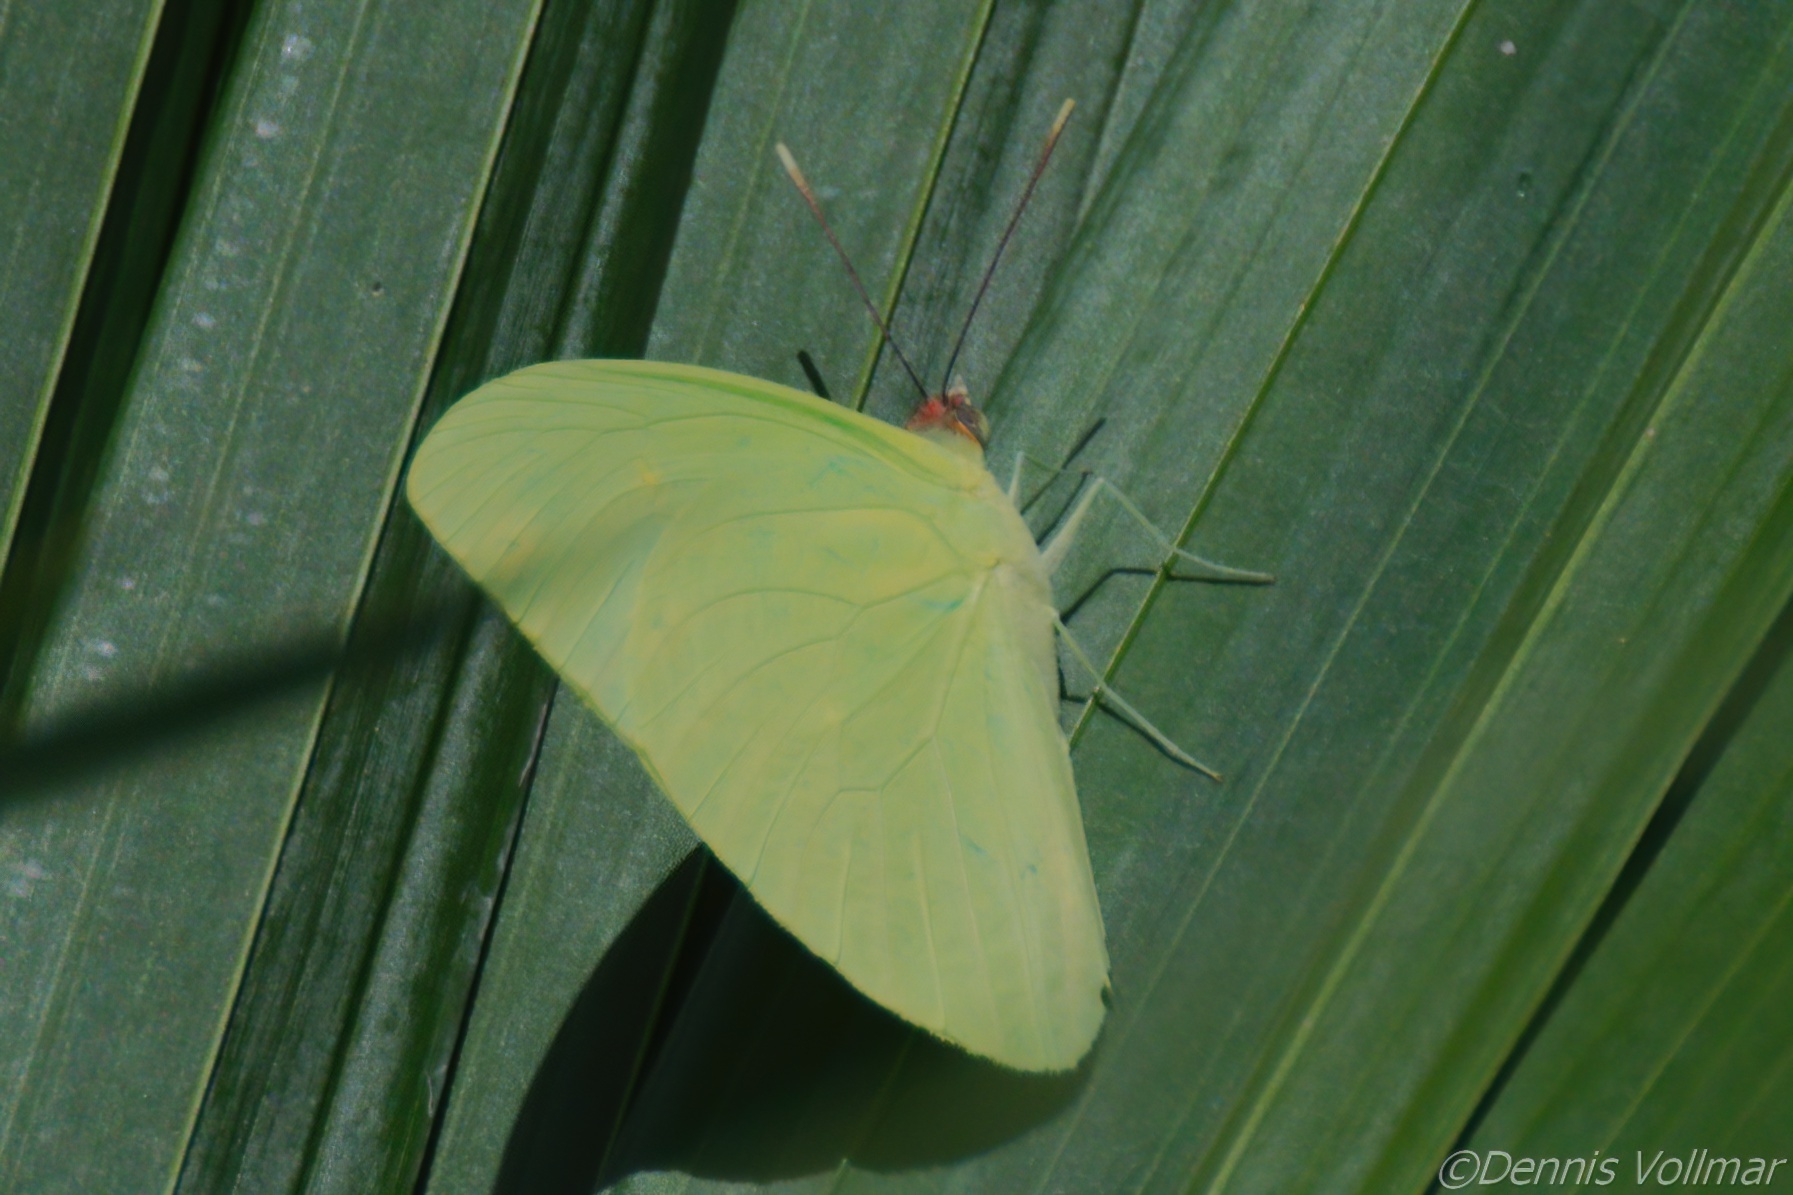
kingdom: Animalia
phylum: Arthropoda
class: Insecta
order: Lepidoptera
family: Pieridae
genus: Aphrissa
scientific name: Aphrissa statira
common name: Statira sulphur
